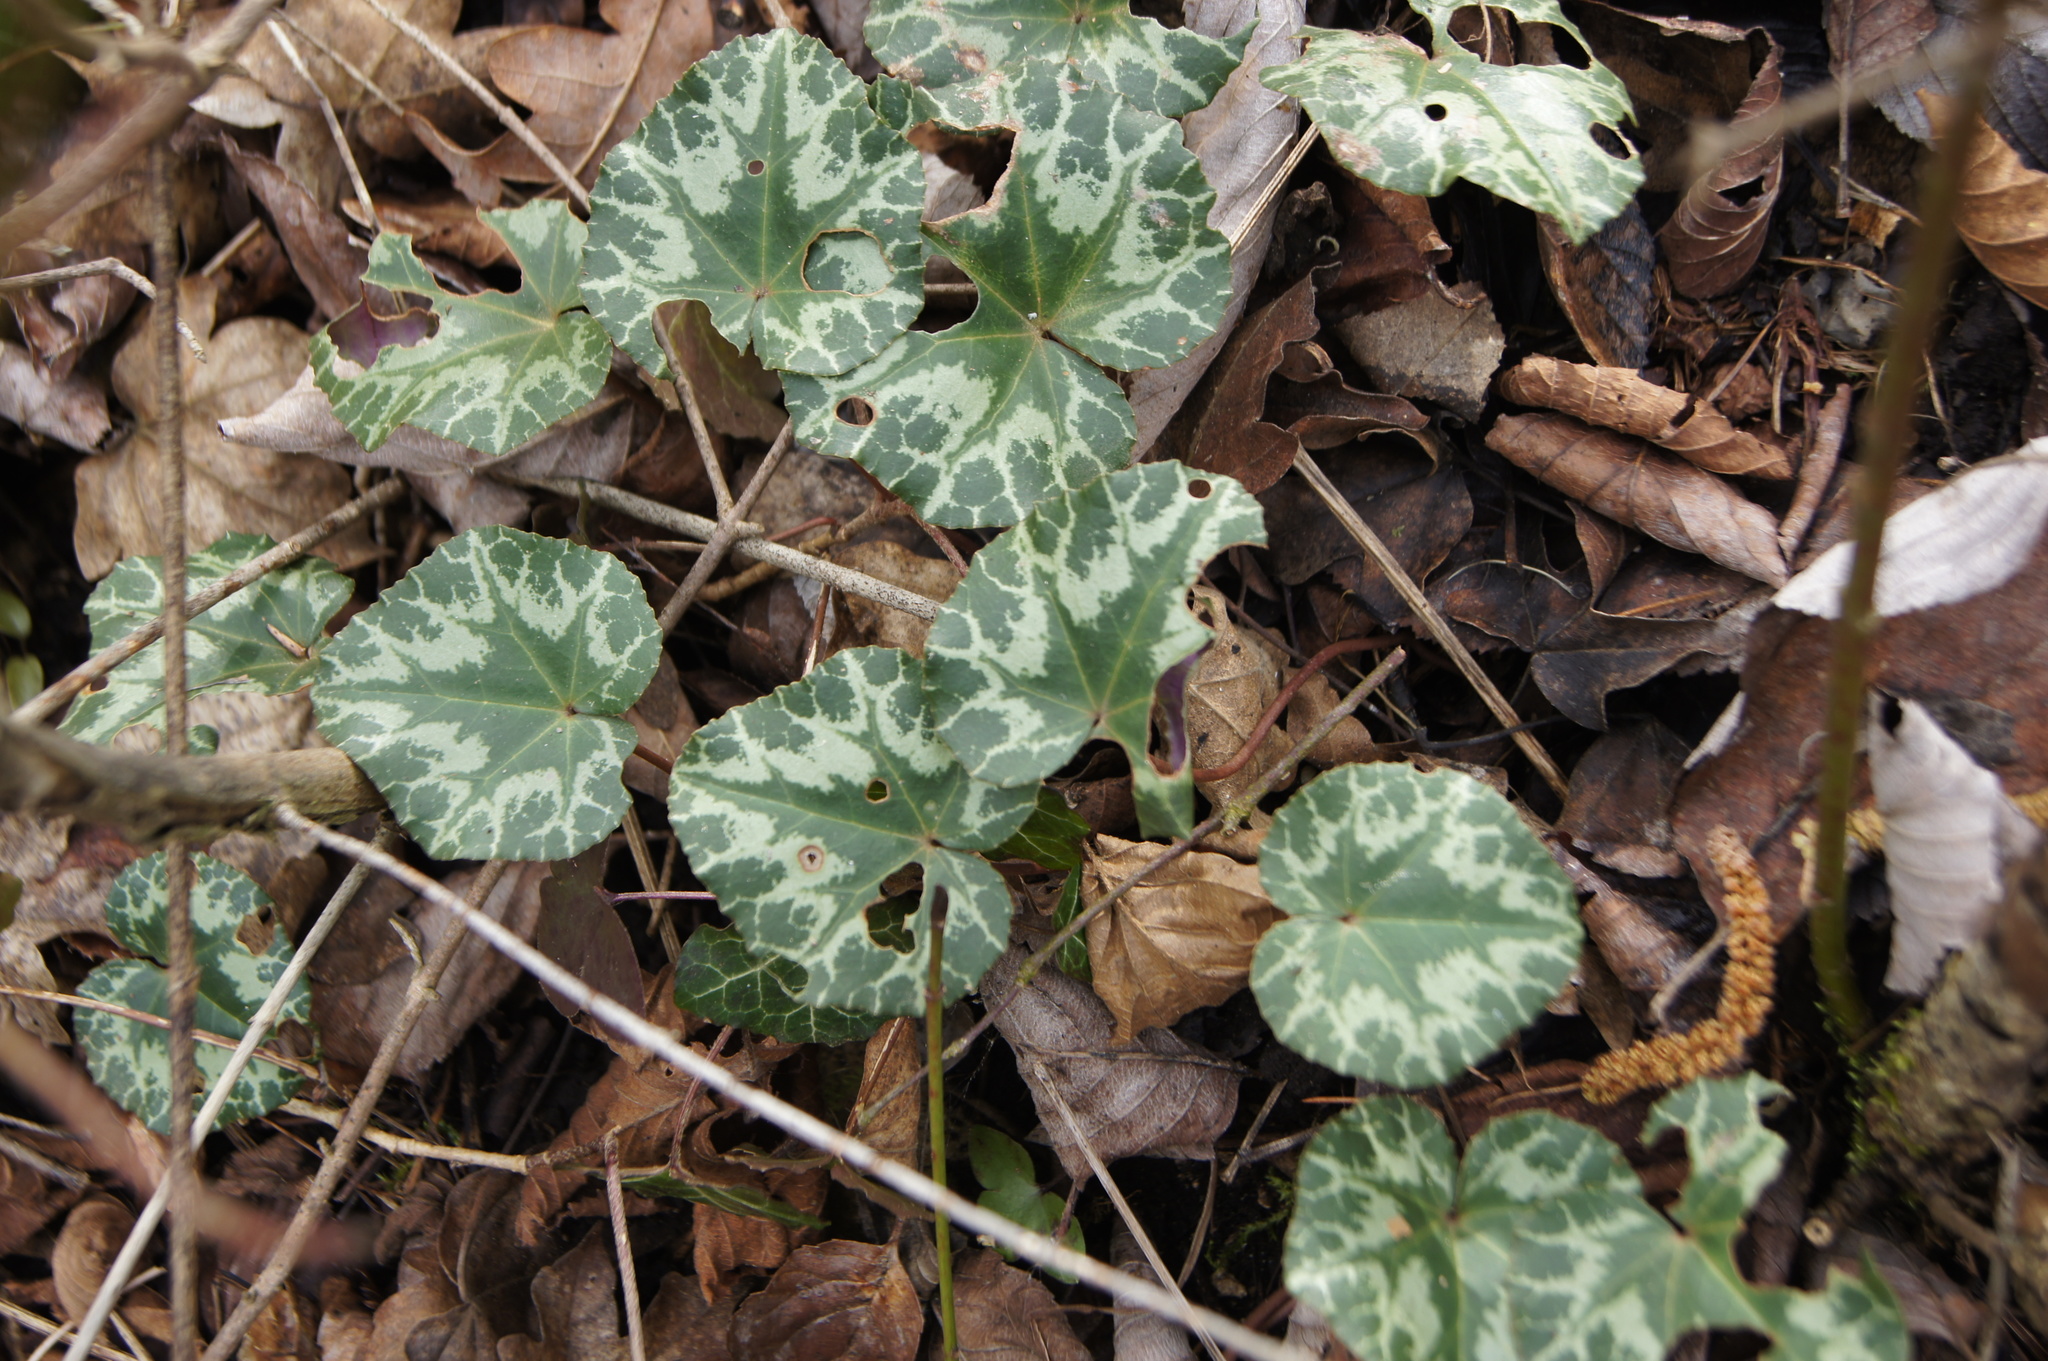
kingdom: Plantae
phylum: Tracheophyta
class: Magnoliopsida
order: Ericales
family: Primulaceae
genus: Cyclamen
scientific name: Cyclamen purpurascens
